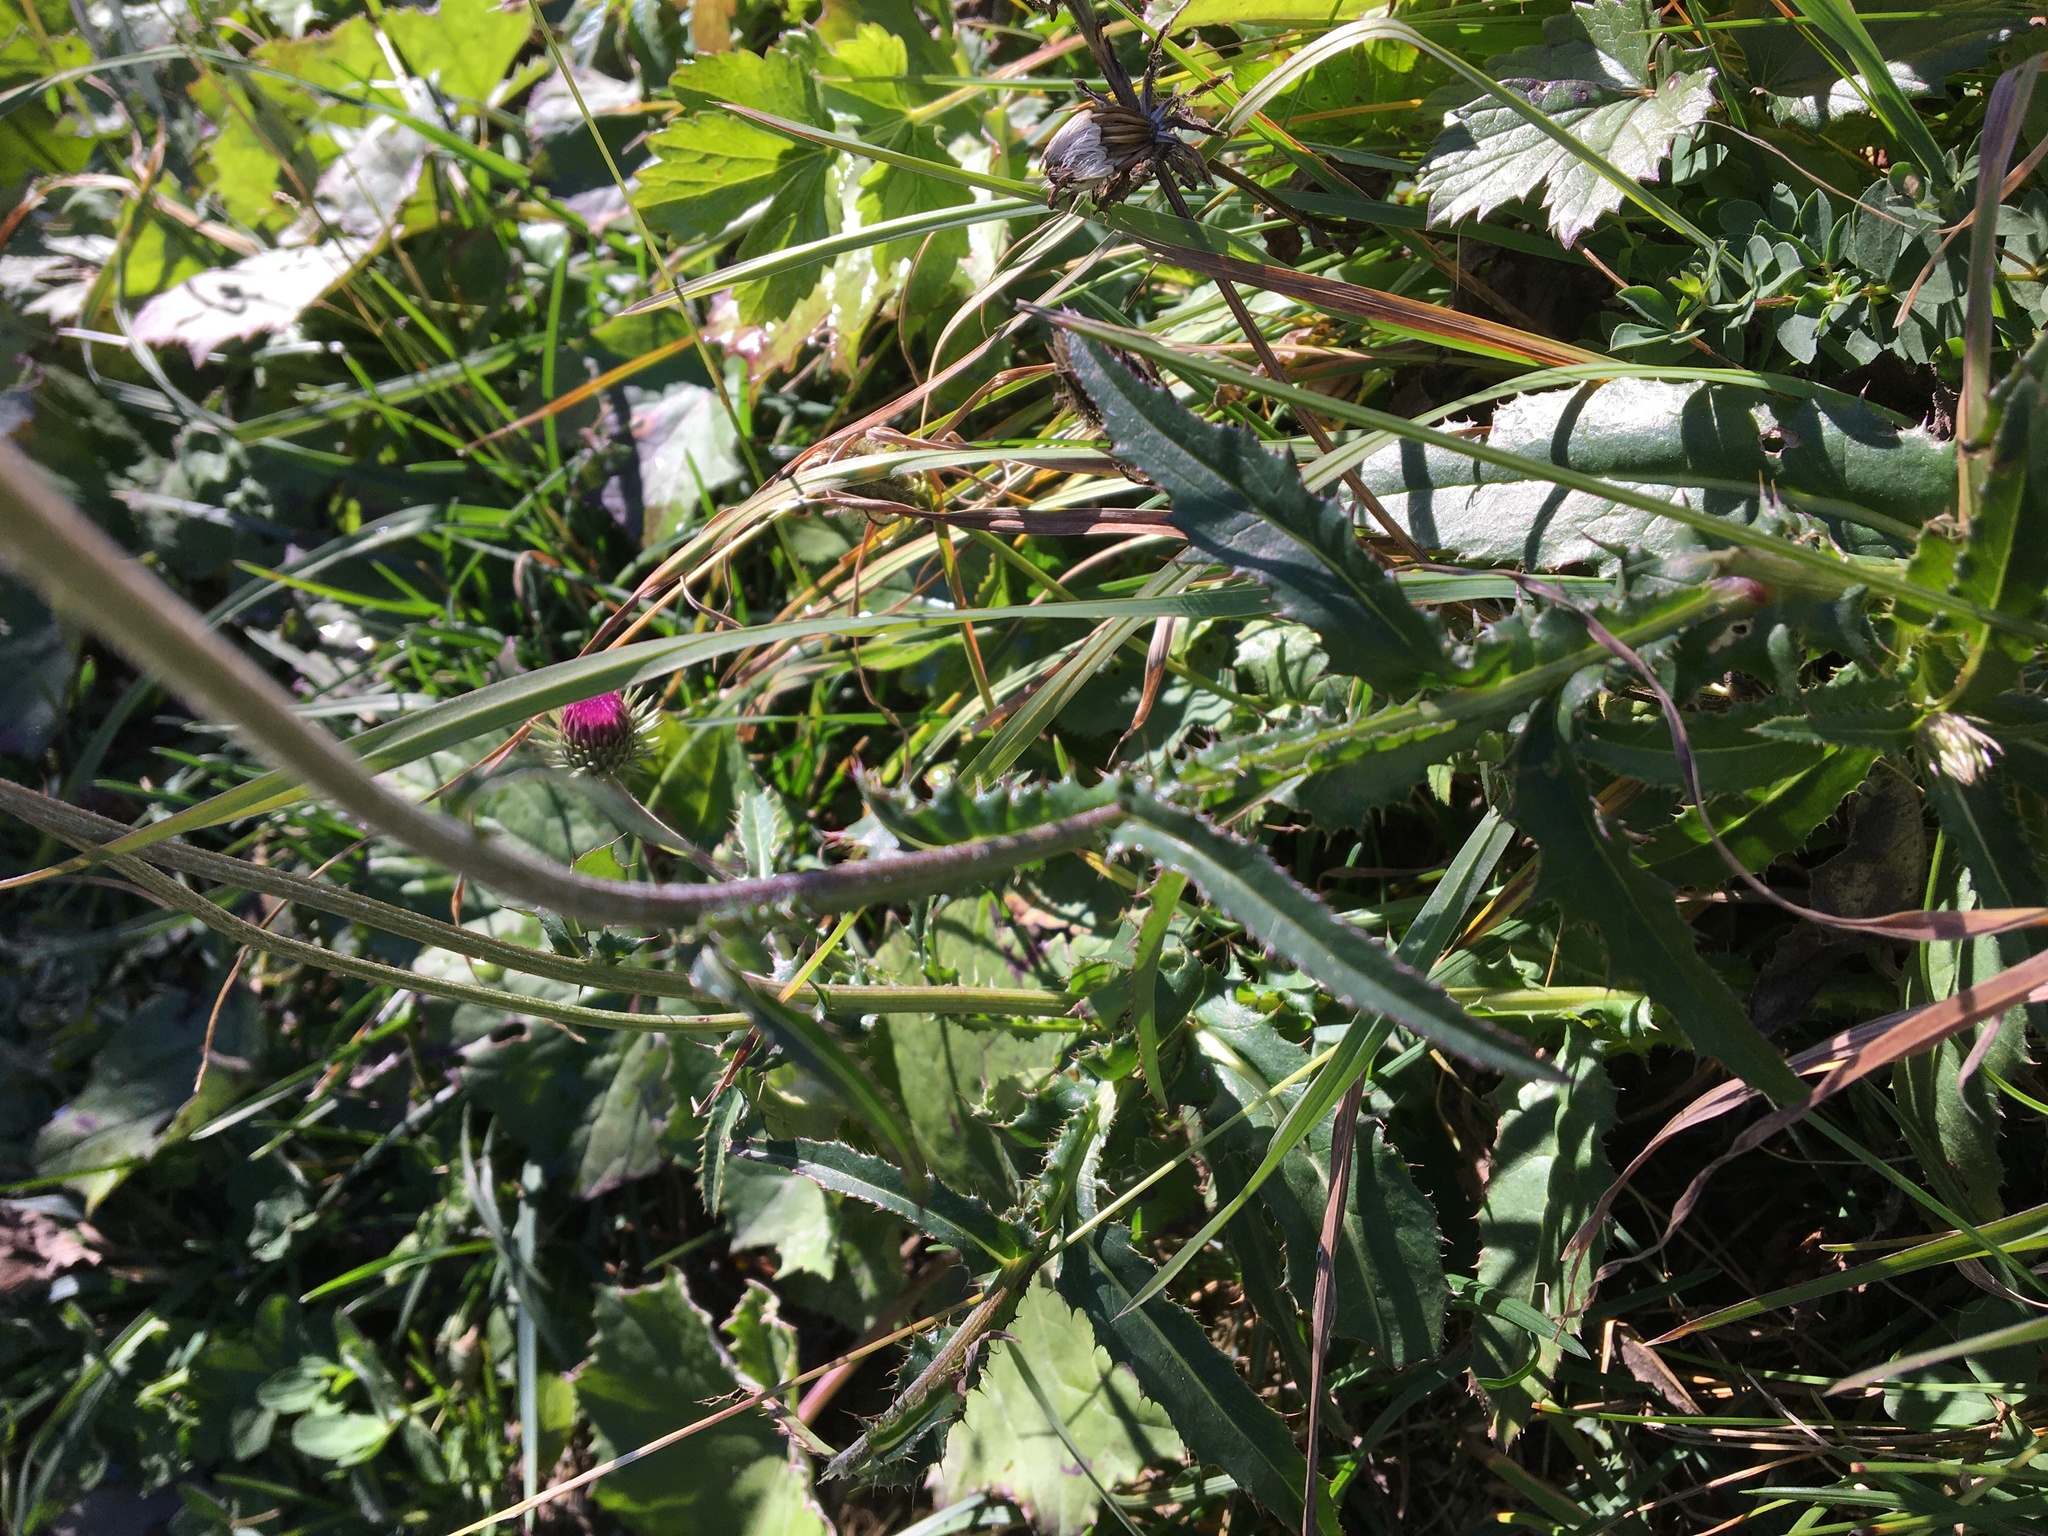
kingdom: Plantae
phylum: Tracheophyta
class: Magnoliopsida
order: Asterales
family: Asteraceae
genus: Carduus
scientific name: Carduus defloratus
